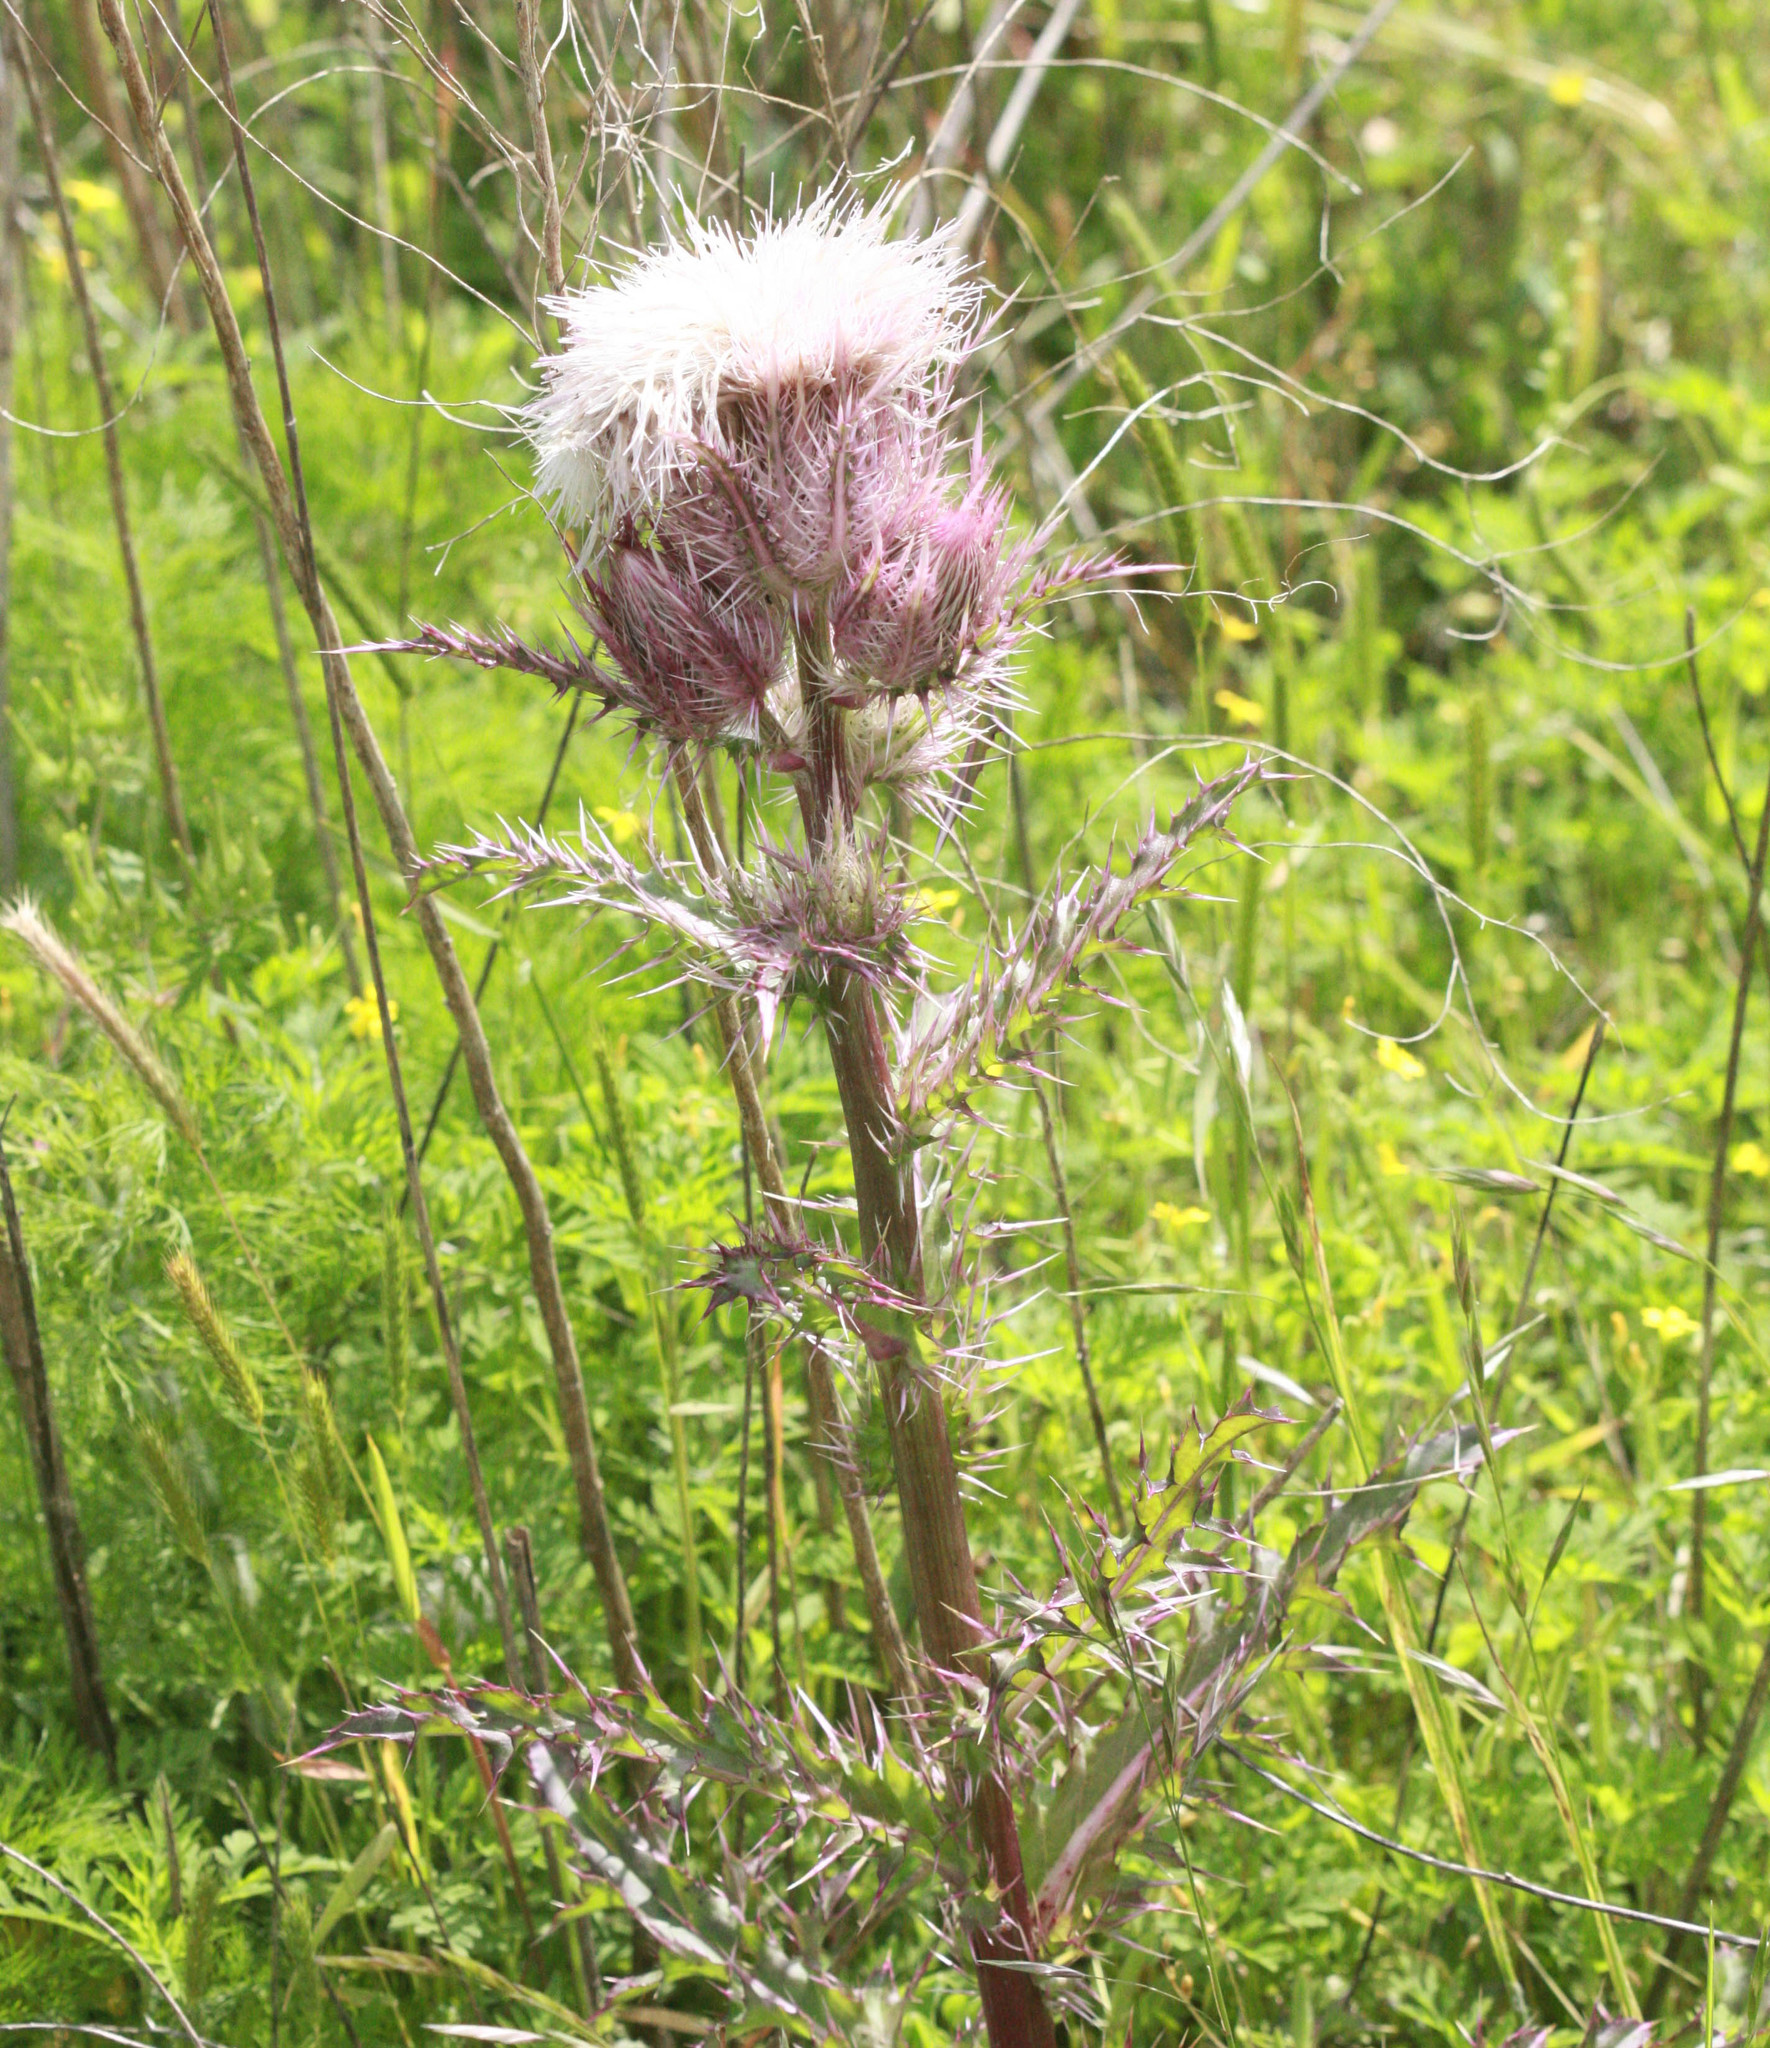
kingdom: Plantae
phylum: Tracheophyta
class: Magnoliopsida
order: Asterales
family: Asteraceae
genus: Cirsium
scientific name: Cirsium horridulum
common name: Bristly thistle
